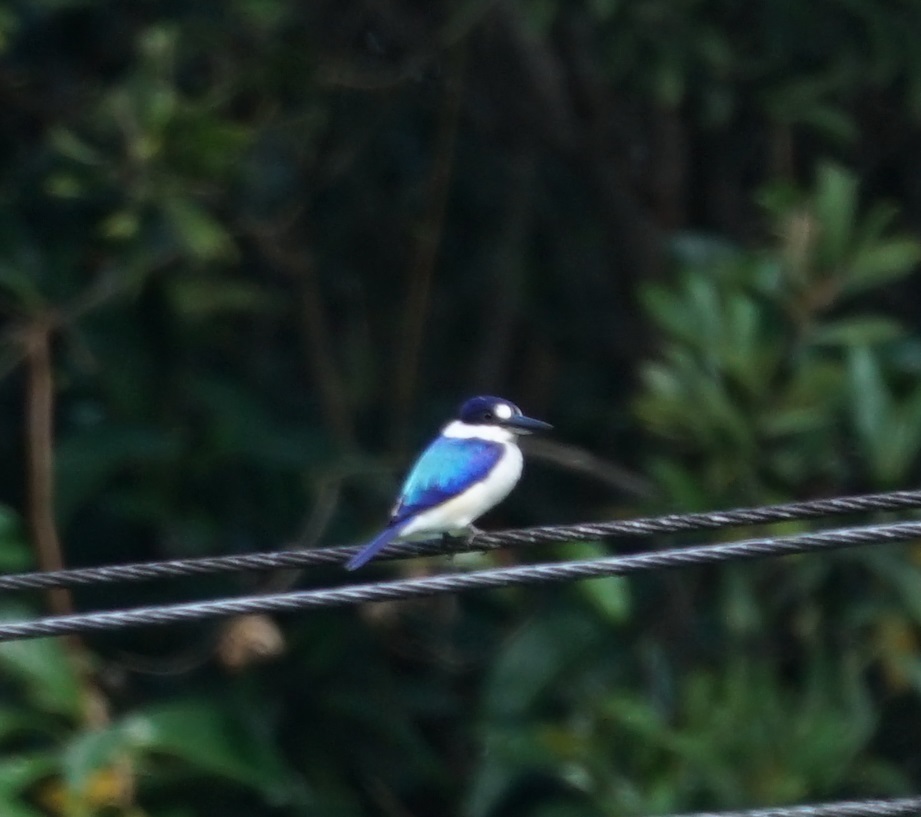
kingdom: Animalia
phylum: Chordata
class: Aves
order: Coraciiformes
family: Alcedinidae
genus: Todiramphus
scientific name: Todiramphus macleayii
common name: Forest kingfisher
